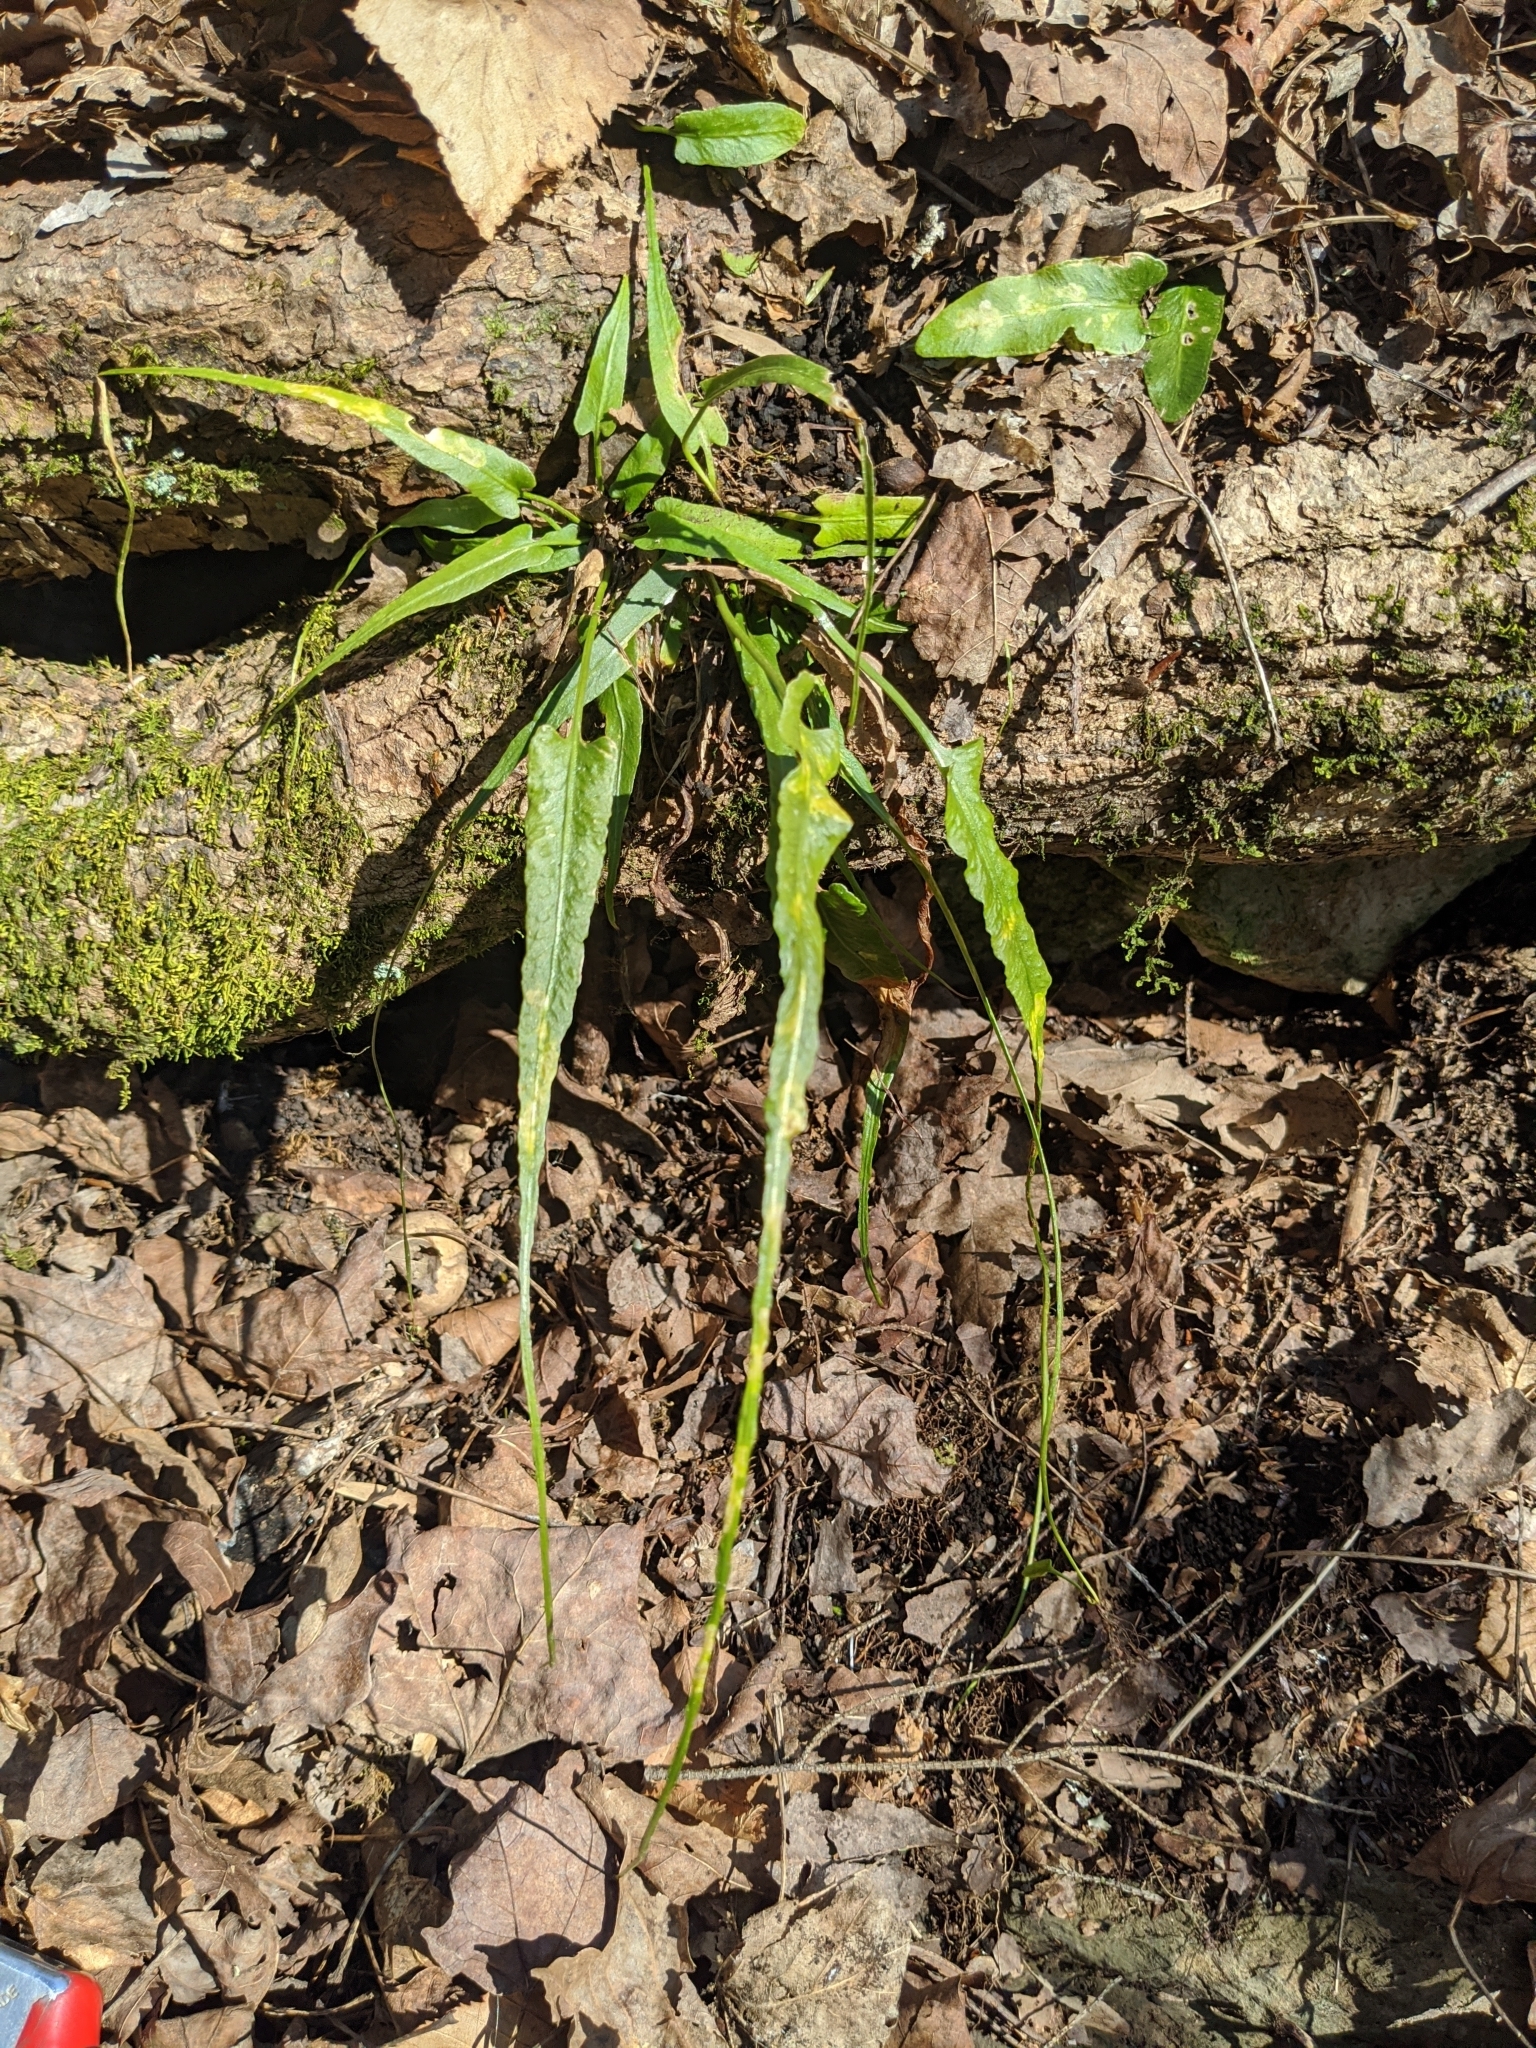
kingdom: Plantae
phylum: Tracheophyta
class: Polypodiopsida
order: Polypodiales
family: Aspleniaceae
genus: Asplenium
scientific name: Asplenium rhizophyllum
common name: Walking fern
